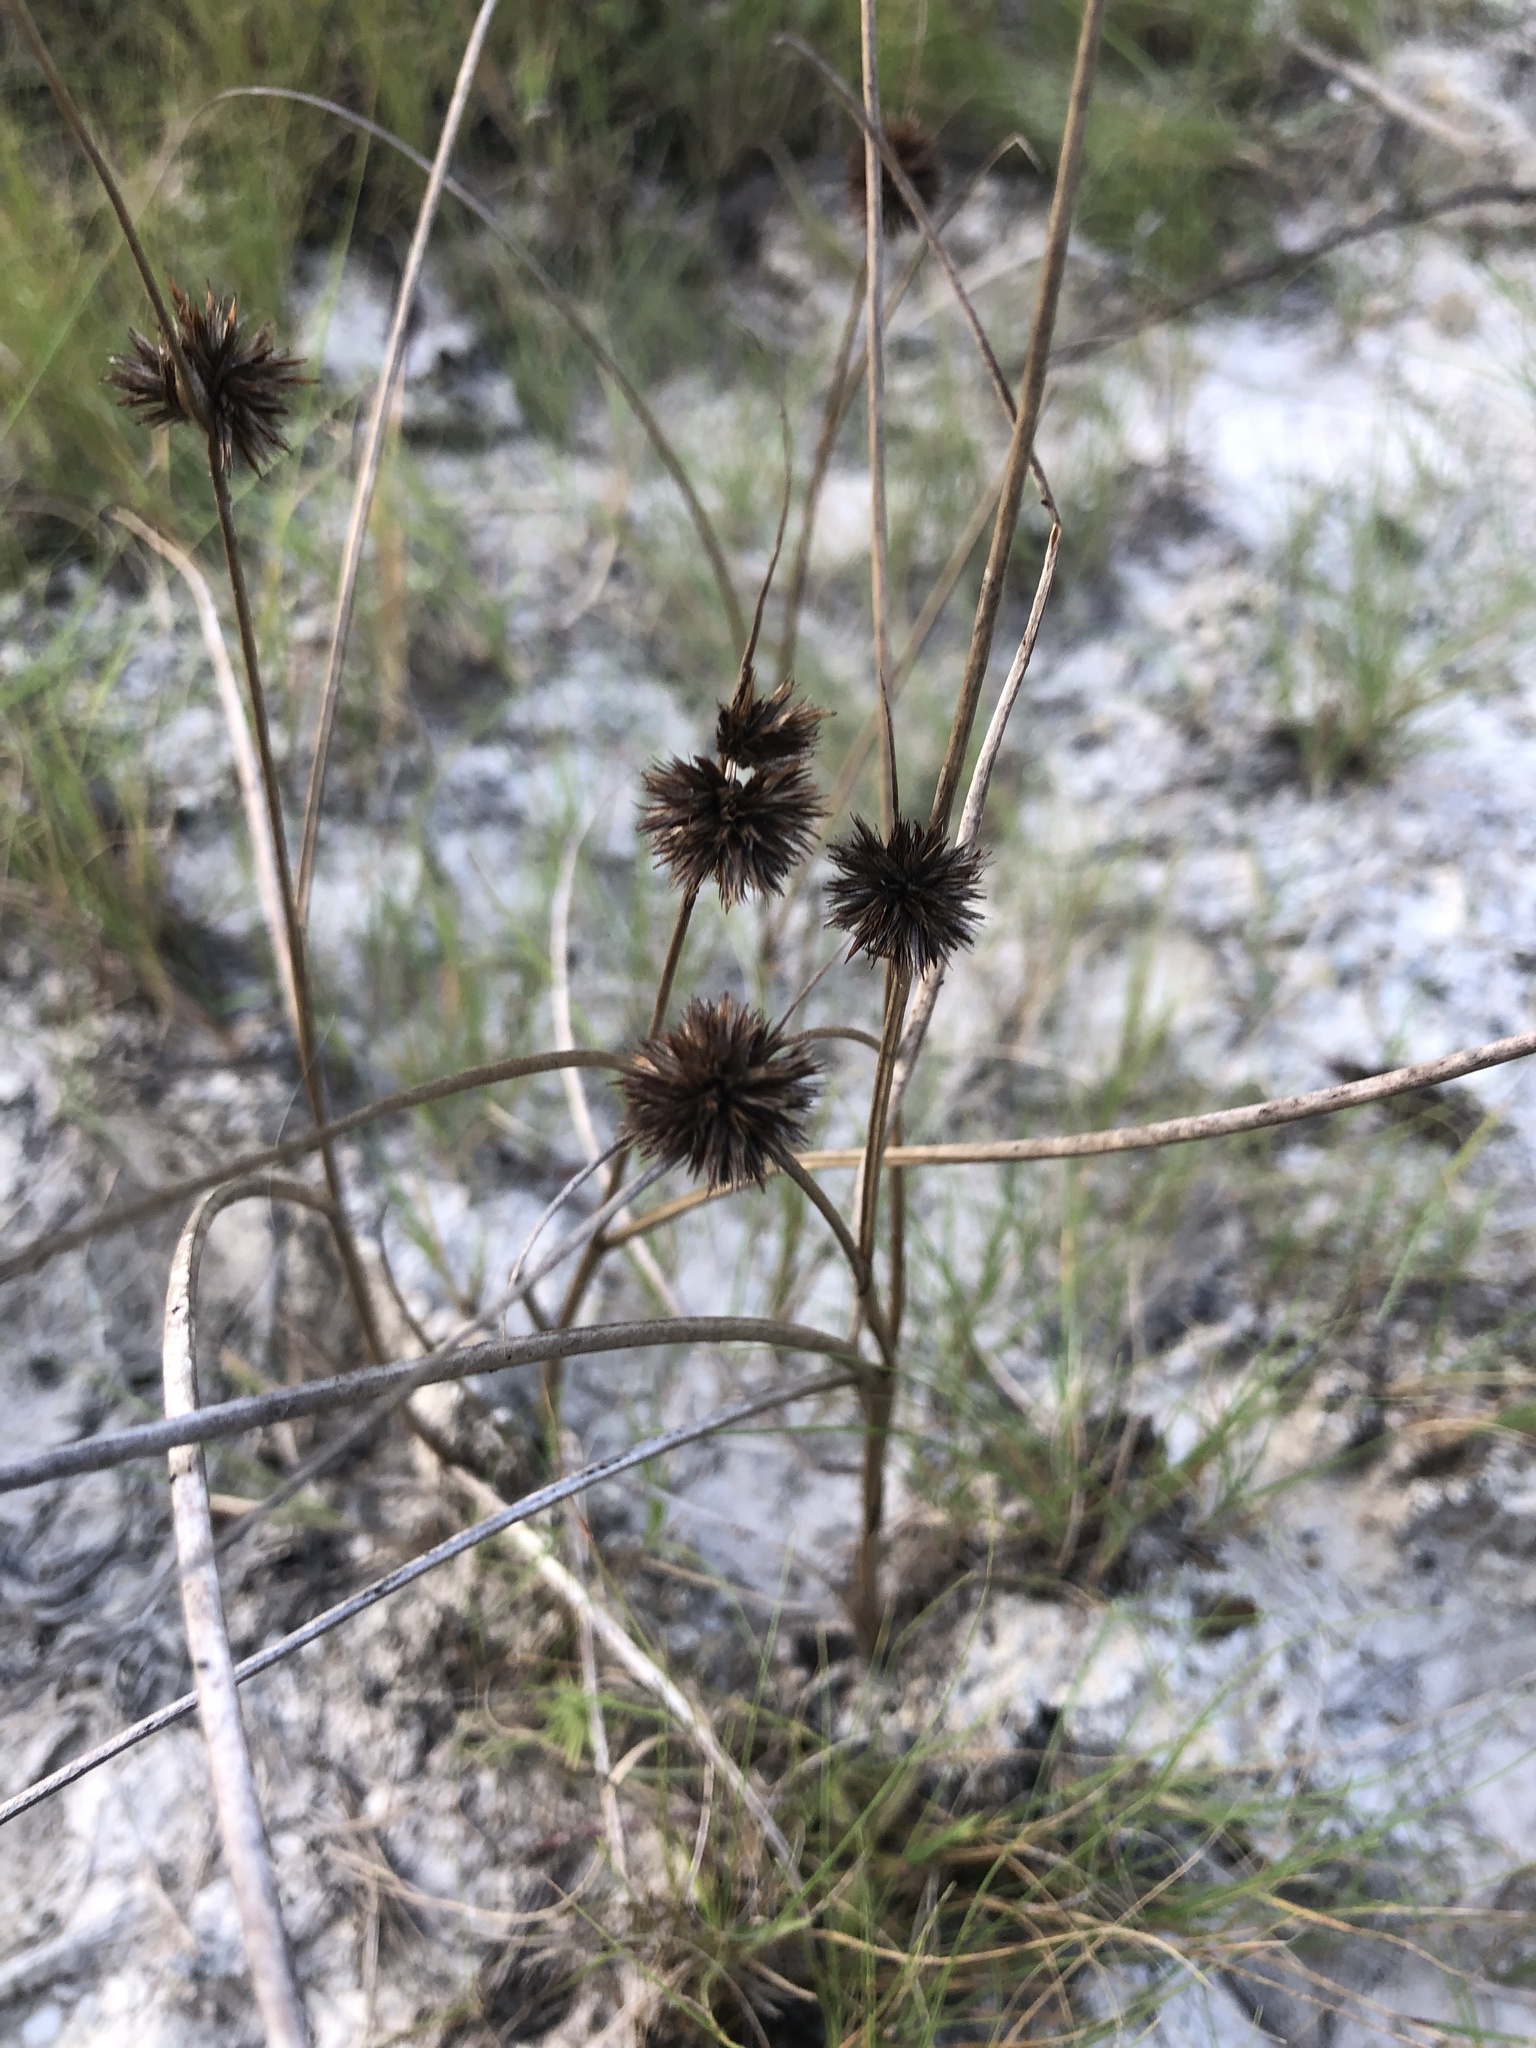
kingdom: Plantae
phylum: Tracheophyta
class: Liliopsida
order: Poales
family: Juncaceae
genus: Juncus
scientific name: Juncus torreyi
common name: Torrey's rush
